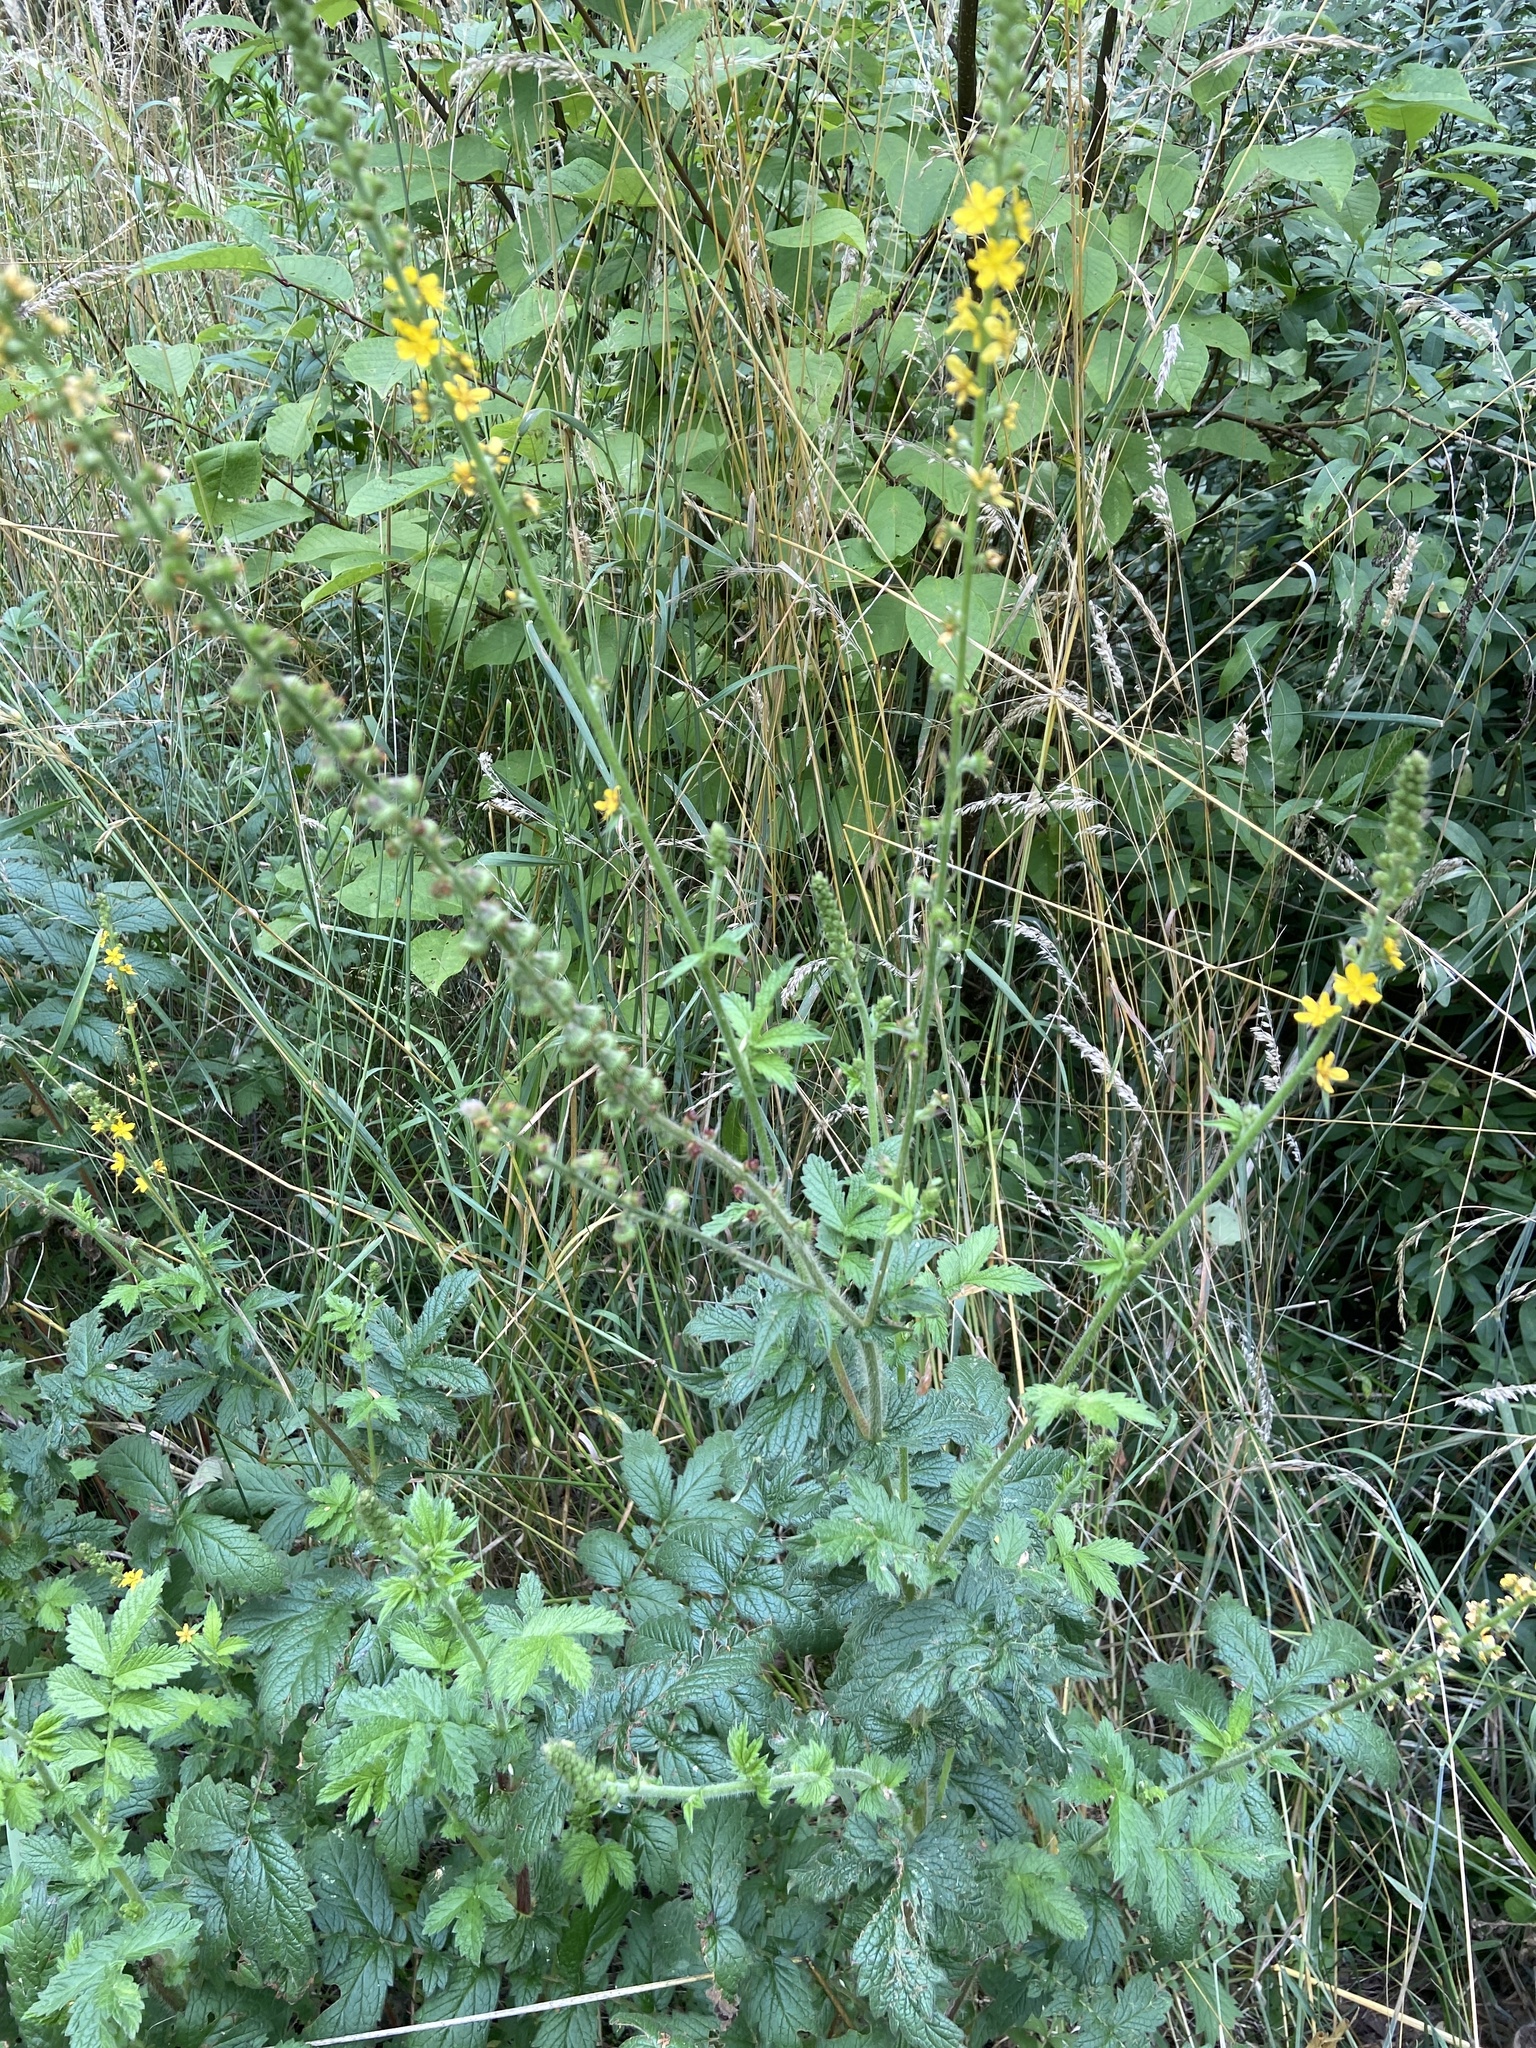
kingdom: Plantae
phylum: Tracheophyta
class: Magnoliopsida
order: Rosales
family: Rosaceae
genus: Agrimonia
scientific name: Agrimonia eupatoria
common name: Agrimony
